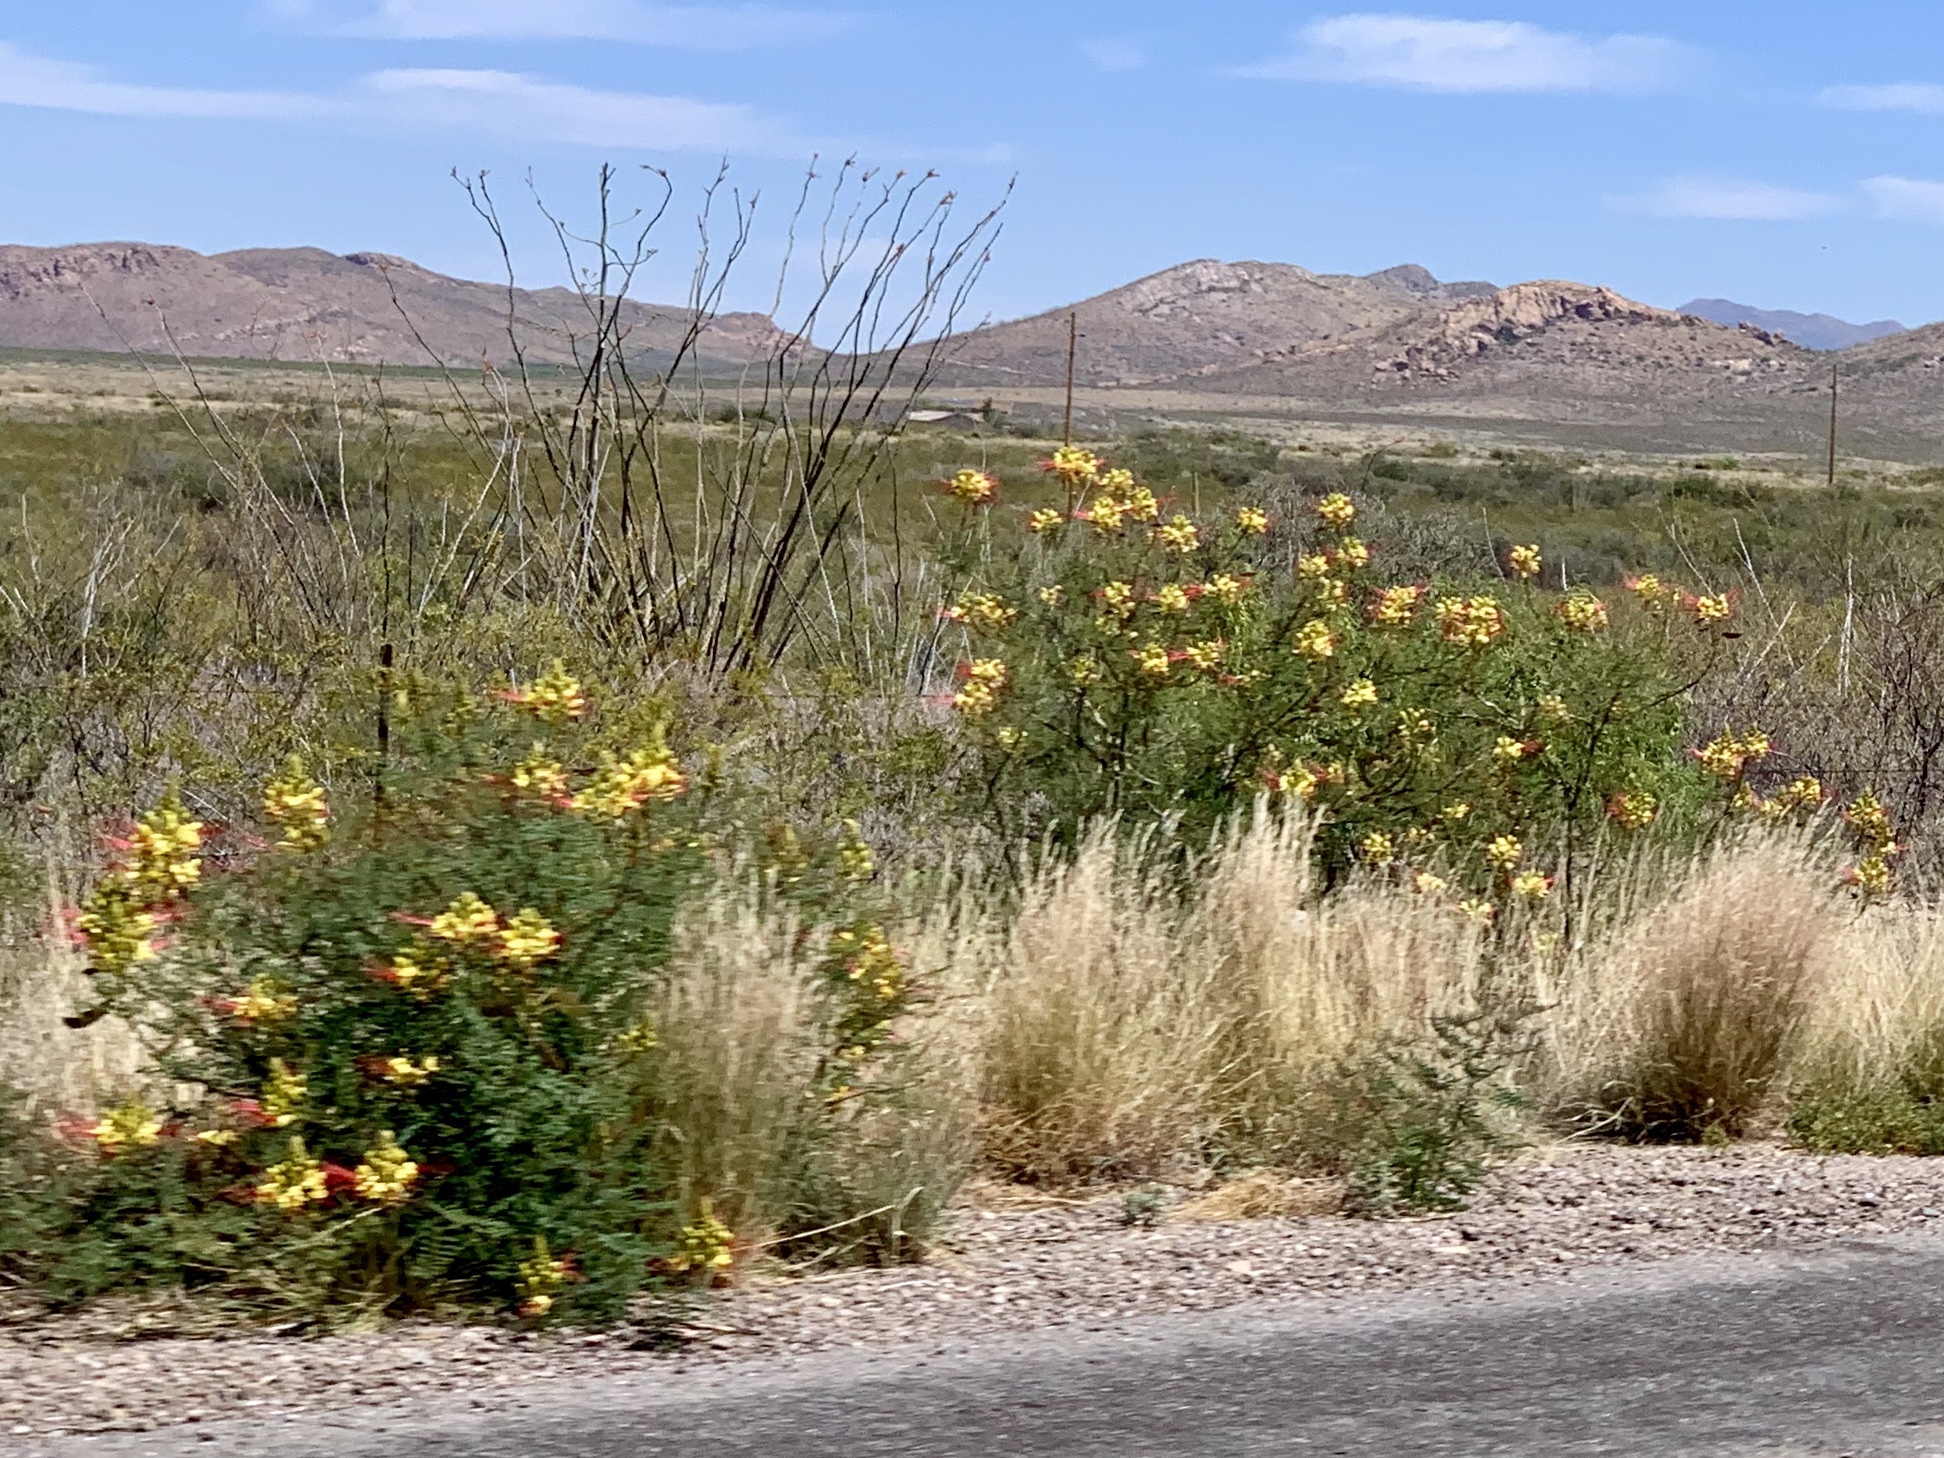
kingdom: Plantae
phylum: Tracheophyta
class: Magnoliopsida
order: Fabales
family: Fabaceae
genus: Erythrostemon
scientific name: Erythrostemon gilliesii
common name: Bird-of-paradise shrub
